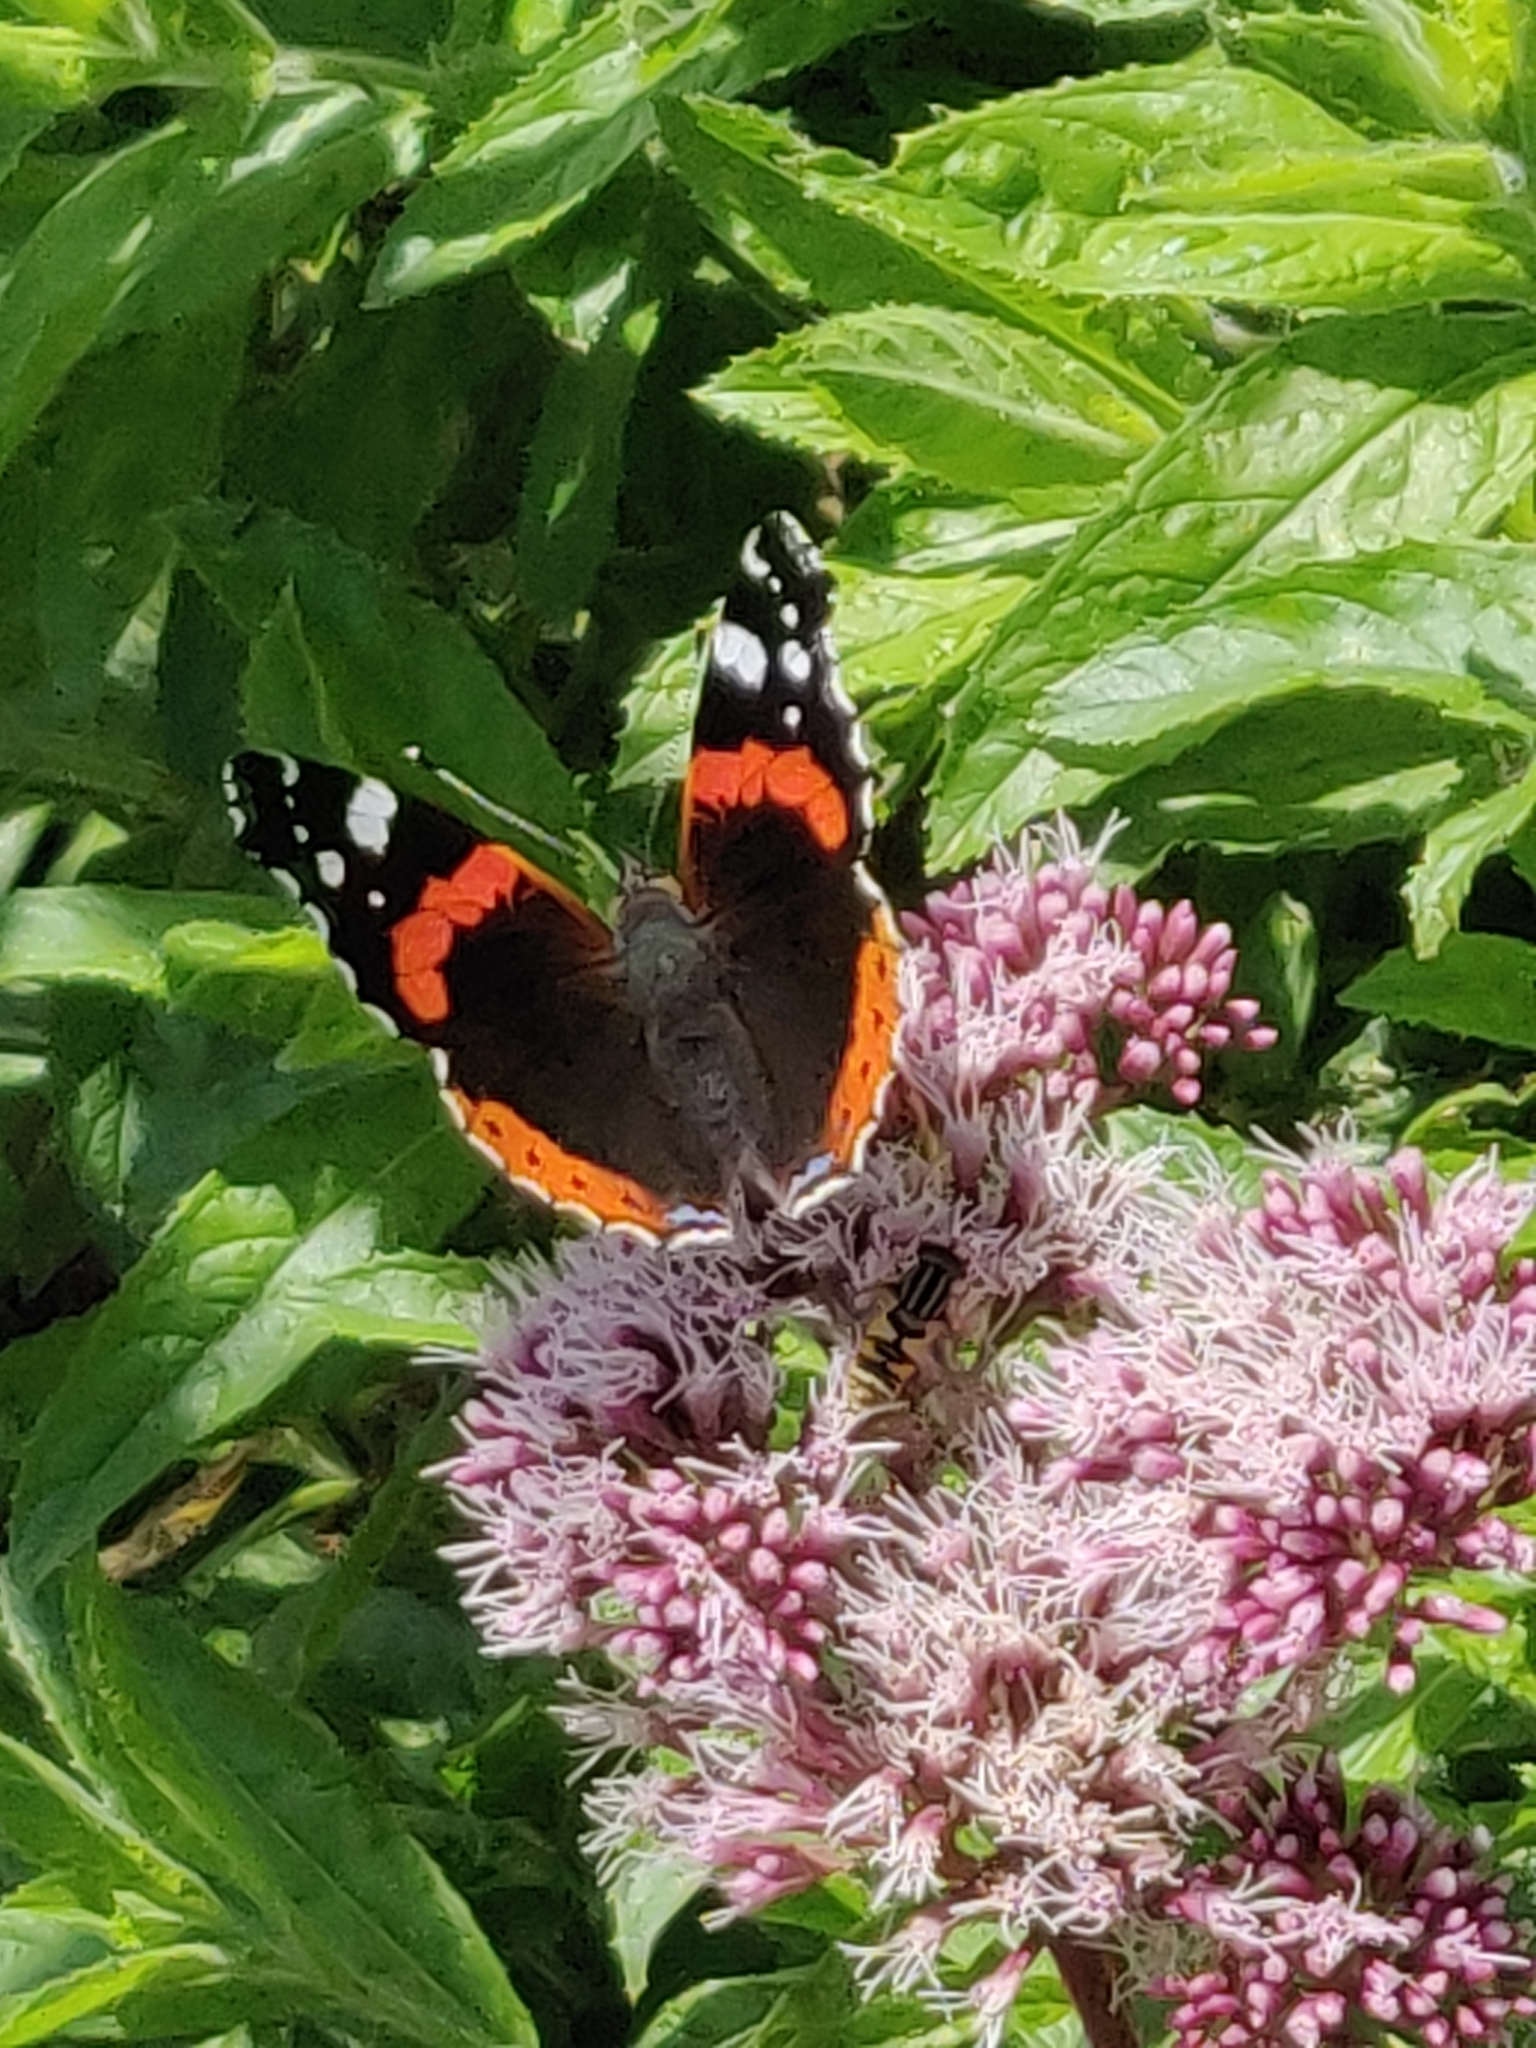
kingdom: Animalia
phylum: Arthropoda
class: Insecta
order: Lepidoptera
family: Nymphalidae
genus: Vanessa
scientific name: Vanessa atalanta
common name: Red admiral
